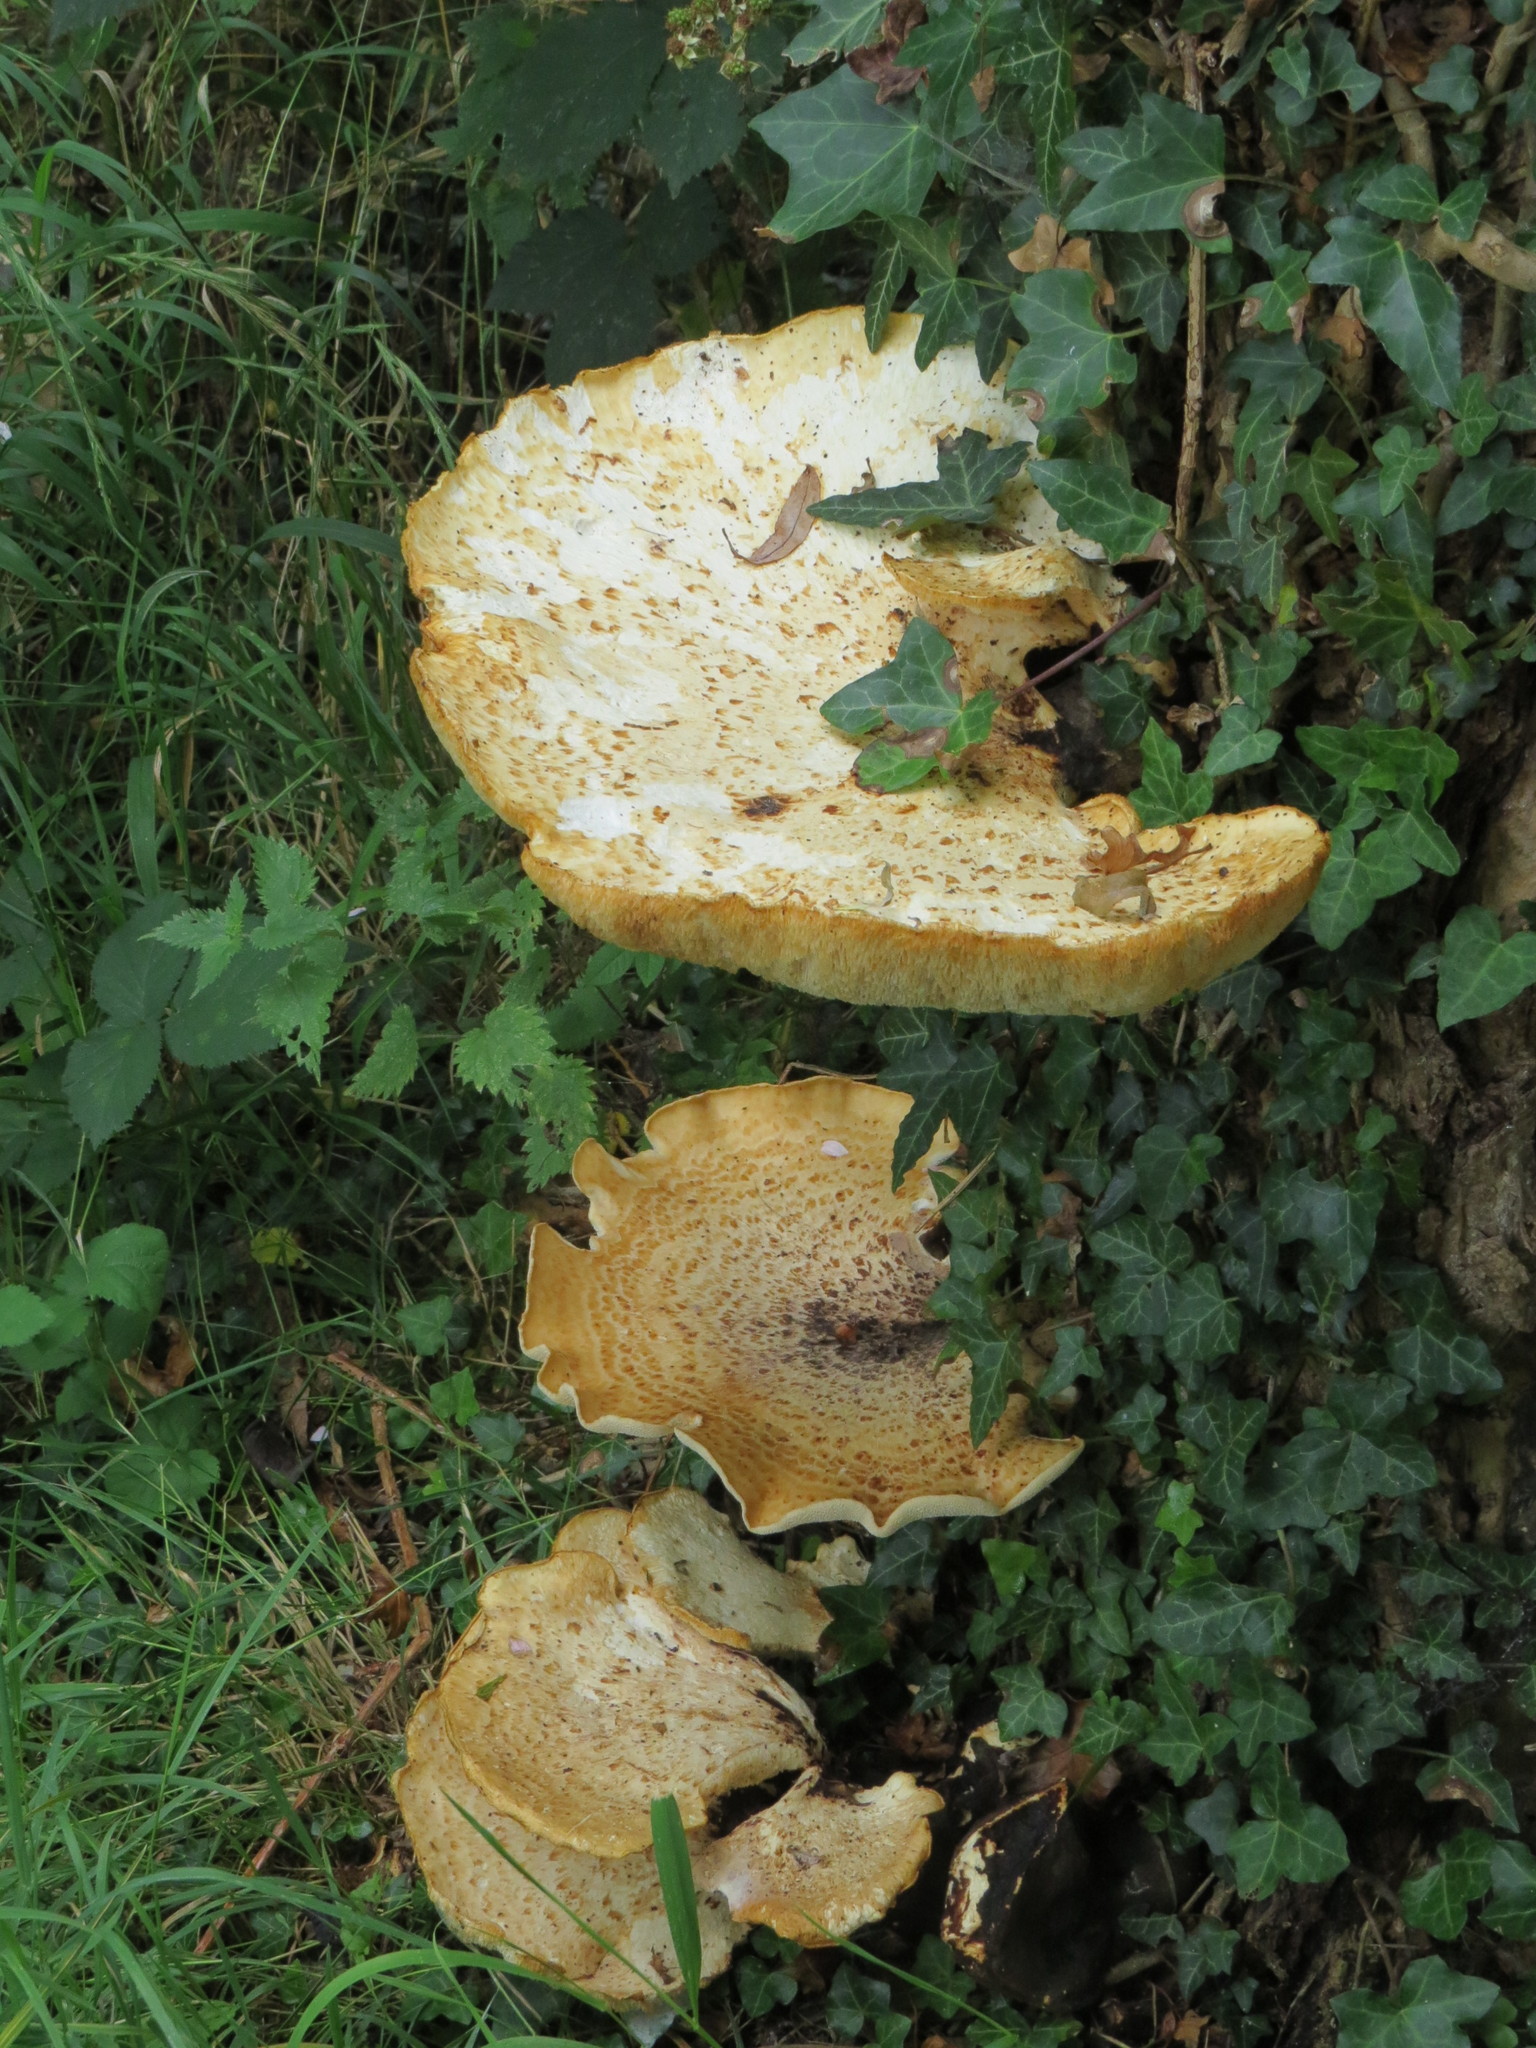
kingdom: Fungi
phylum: Basidiomycota
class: Agaricomycetes
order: Polyporales
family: Polyporaceae
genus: Cerioporus
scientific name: Cerioporus squamosus
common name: Dryad's saddle
